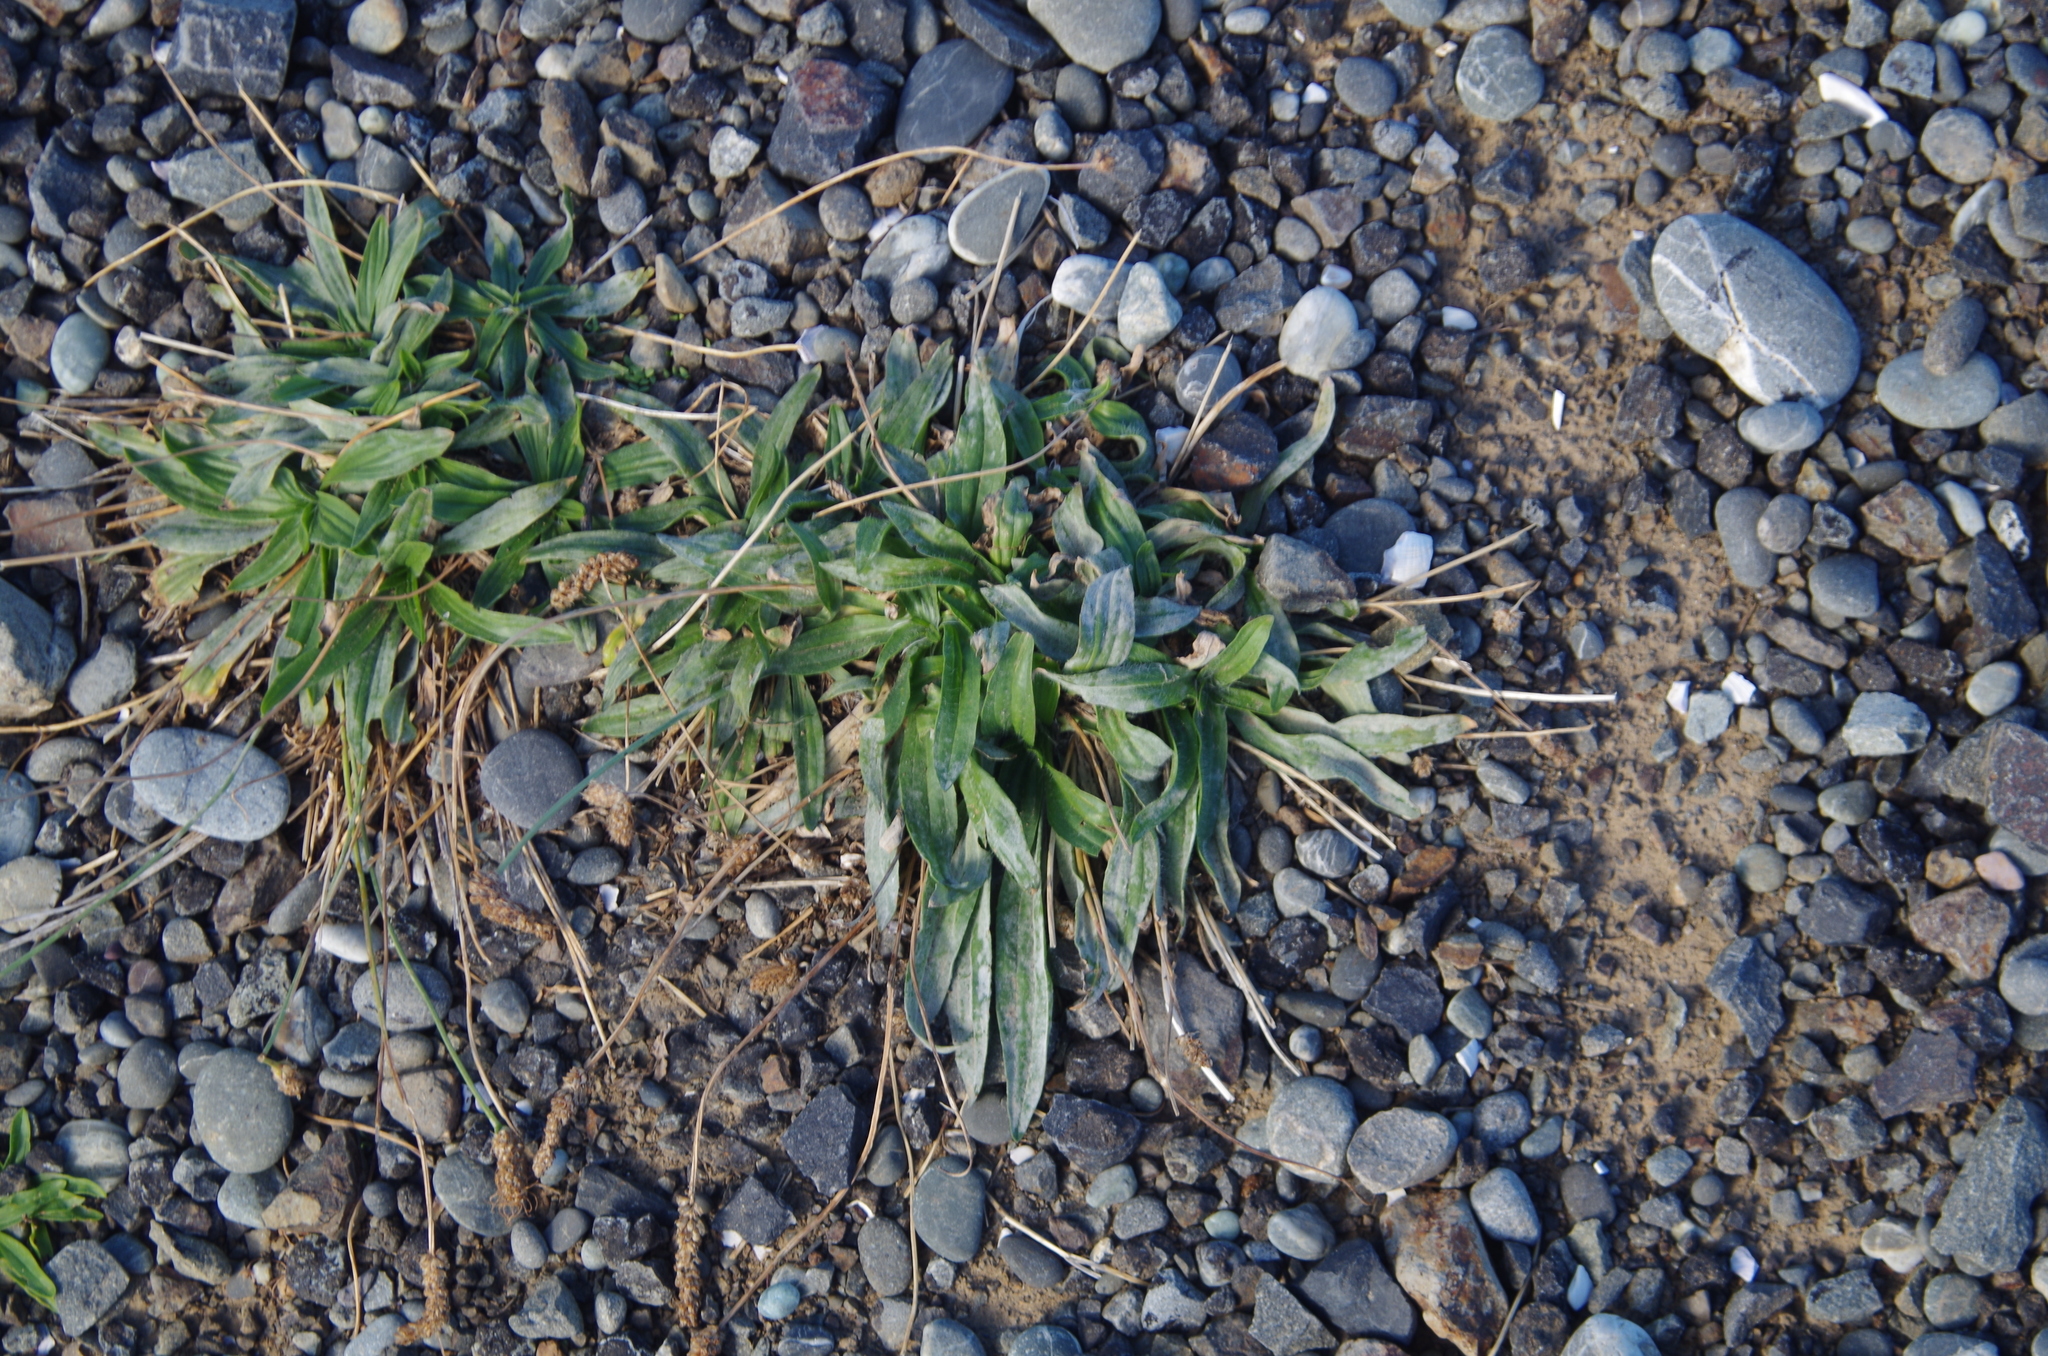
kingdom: Plantae
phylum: Tracheophyta
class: Magnoliopsida
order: Lamiales
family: Plantaginaceae
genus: Plantago
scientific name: Plantago lanceolata
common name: Ribwort plantain
